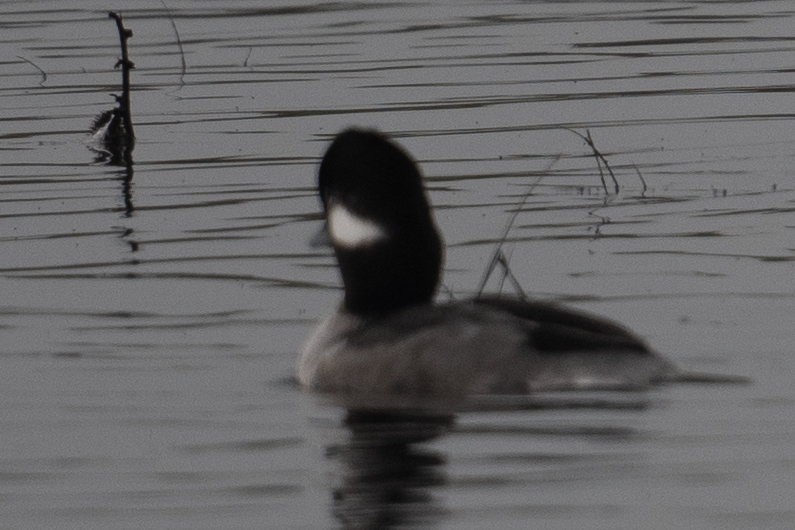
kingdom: Animalia
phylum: Chordata
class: Aves
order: Anseriformes
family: Anatidae
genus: Bucephala
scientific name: Bucephala albeola
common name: Bufflehead
